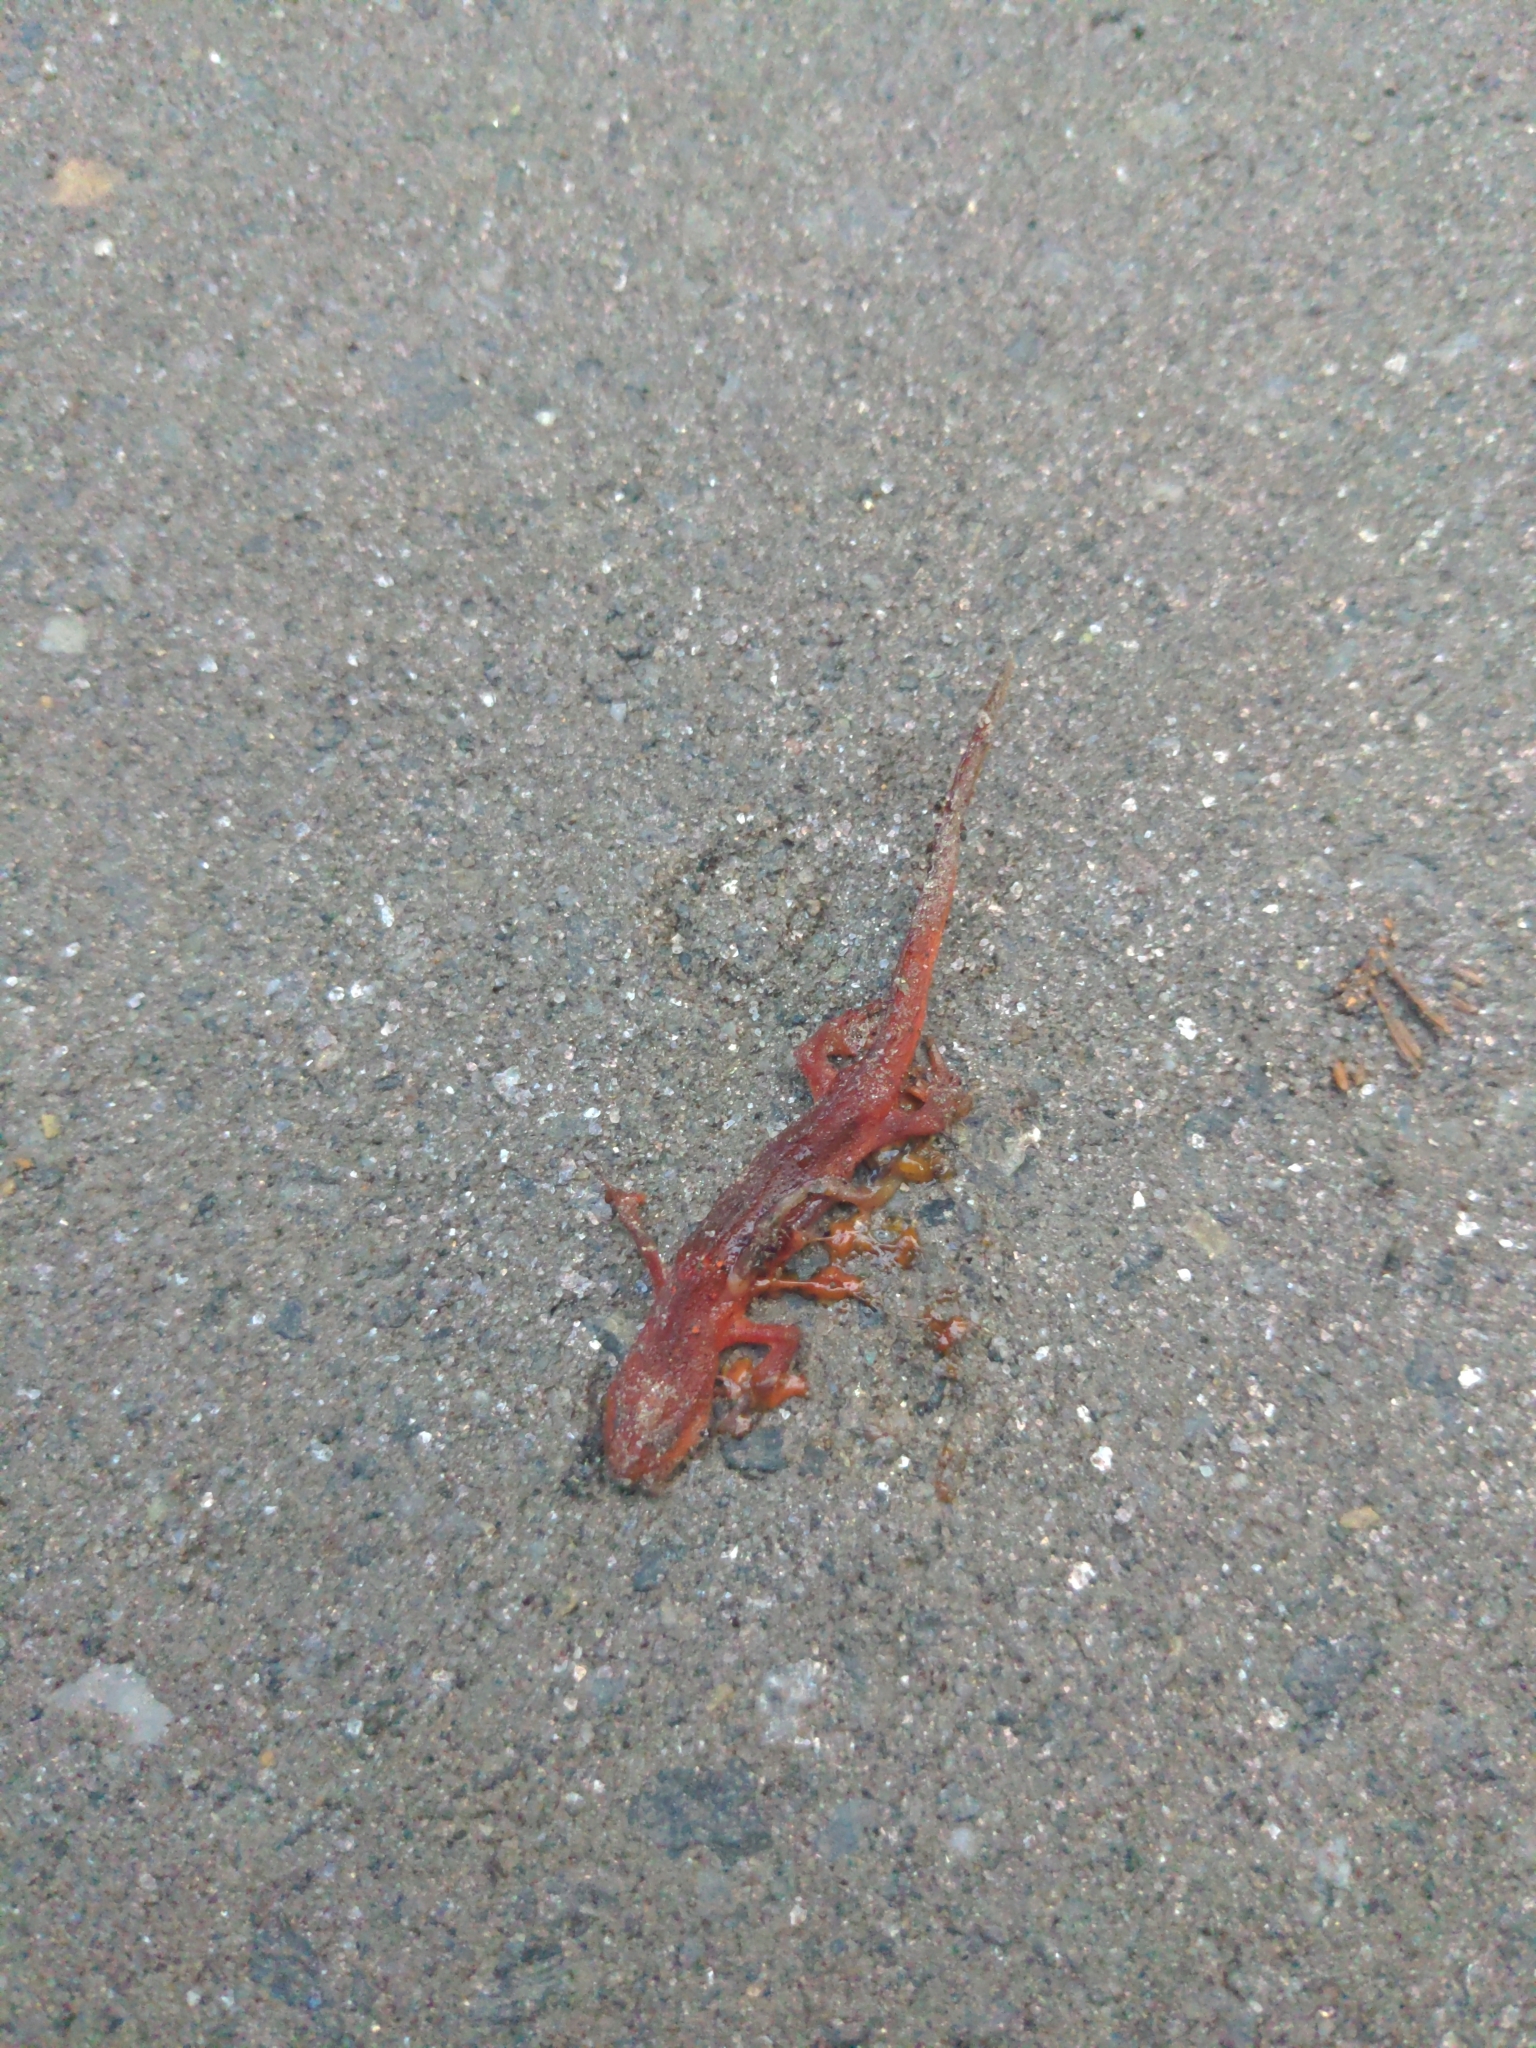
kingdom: Animalia
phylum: Chordata
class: Amphibia
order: Caudata
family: Salamandridae
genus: Notophthalmus
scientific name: Notophthalmus viridescens
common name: Eastern newt
